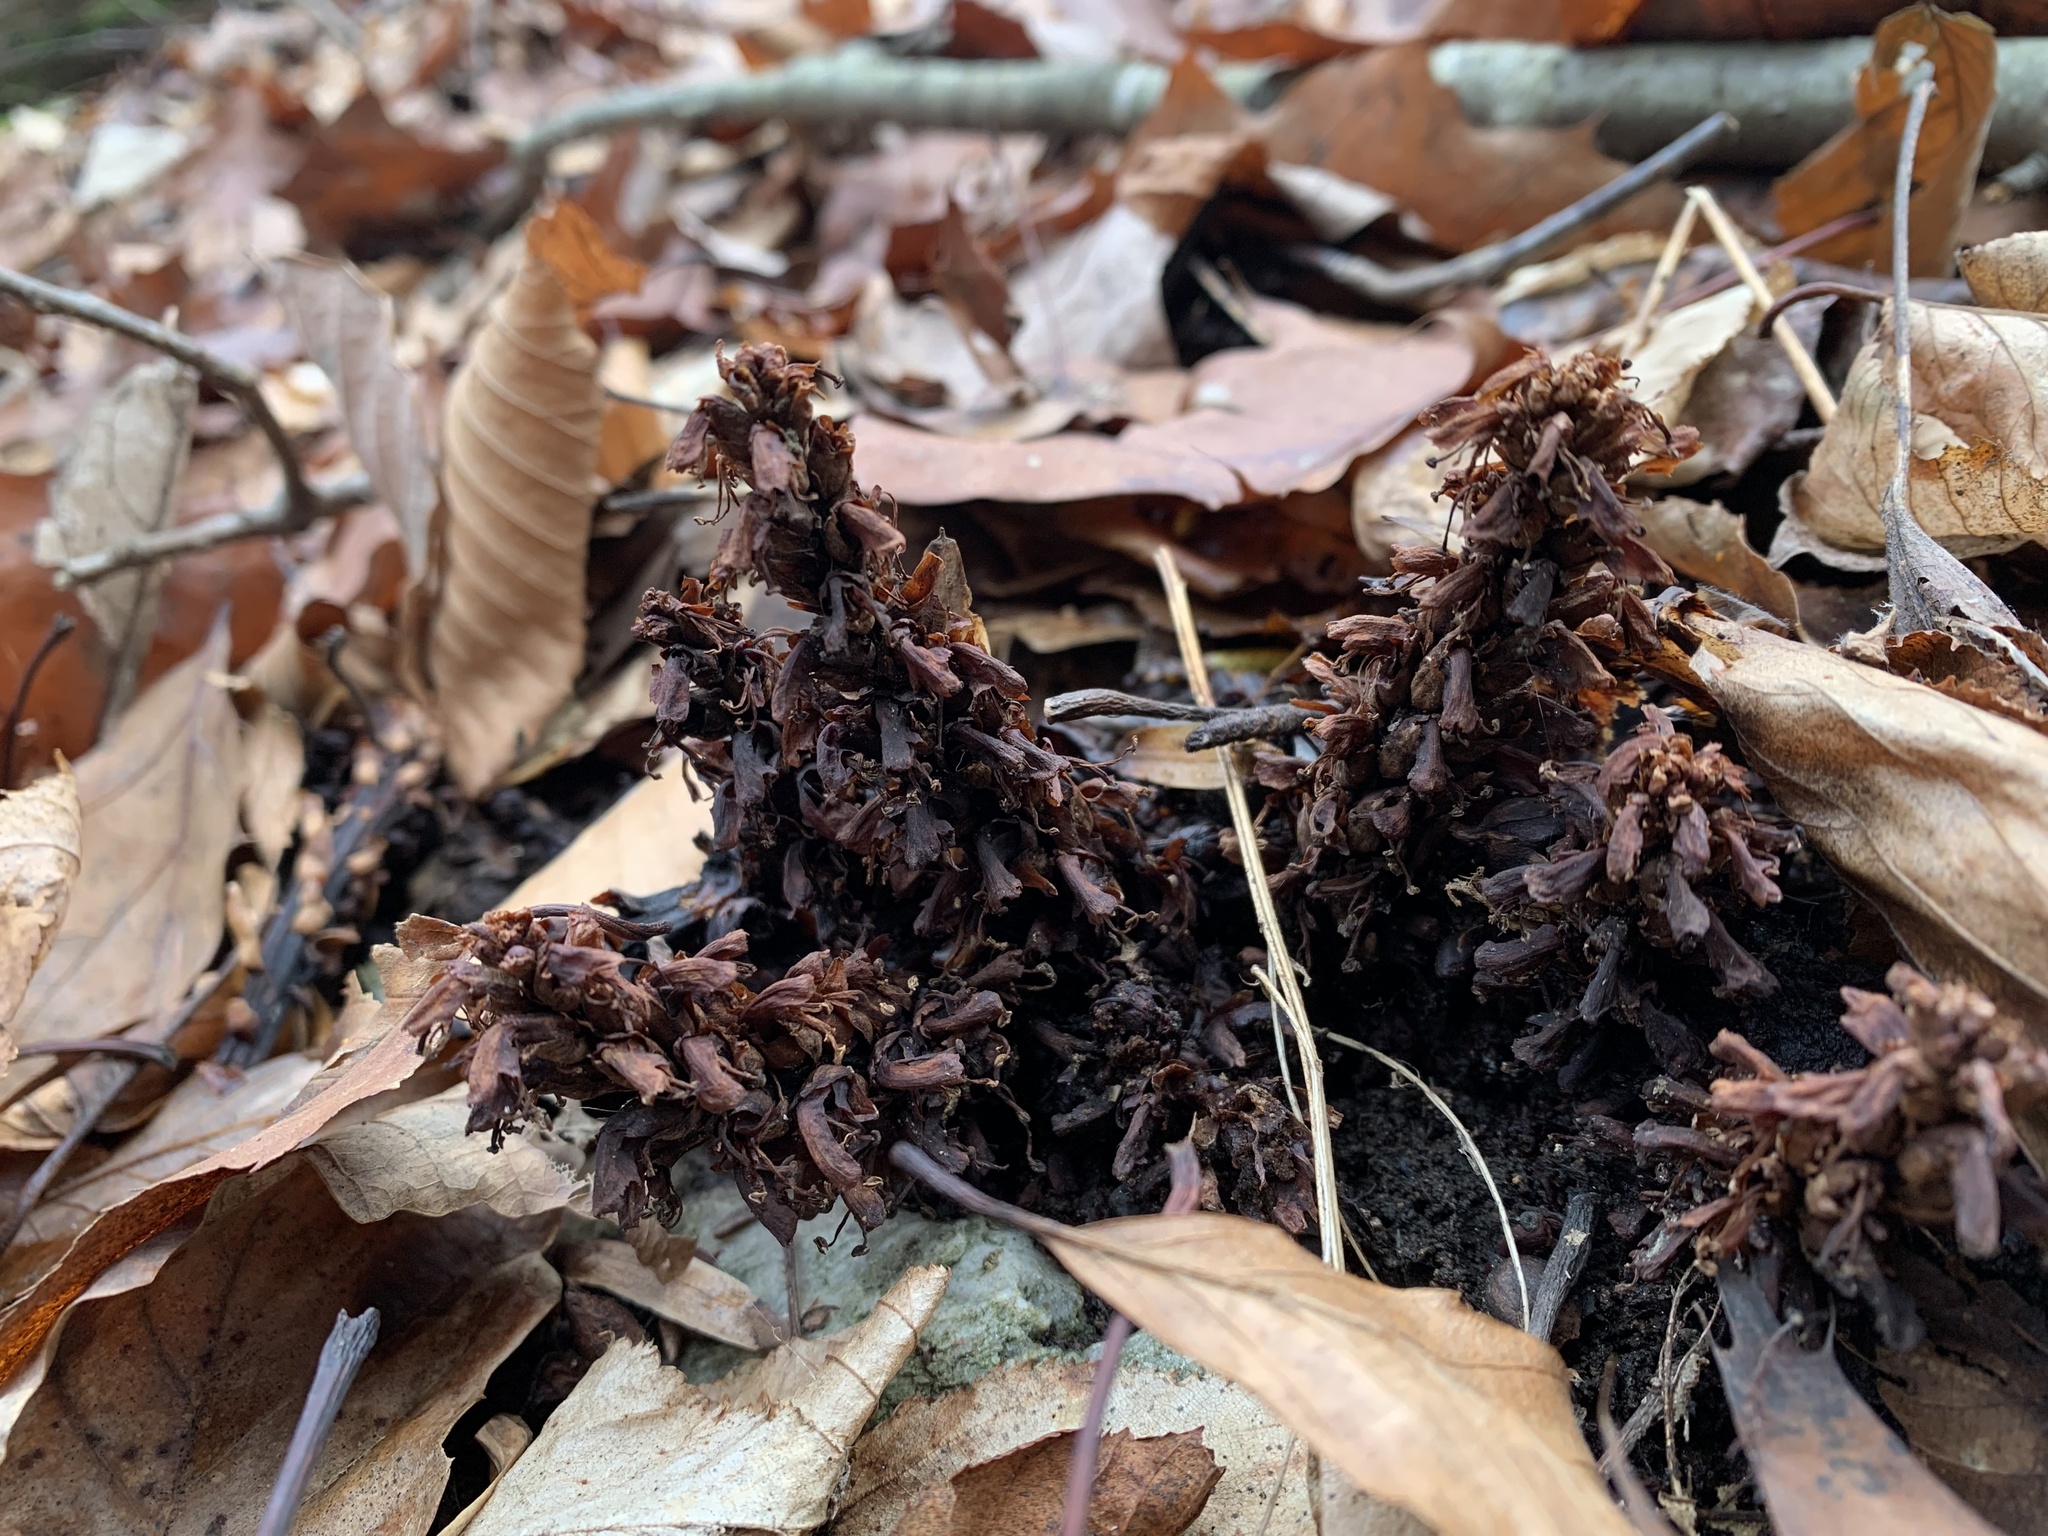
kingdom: Plantae
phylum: Tracheophyta
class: Magnoliopsida
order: Lamiales
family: Orobanchaceae
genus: Conopholis
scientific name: Conopholis americana
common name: American cancer-root
